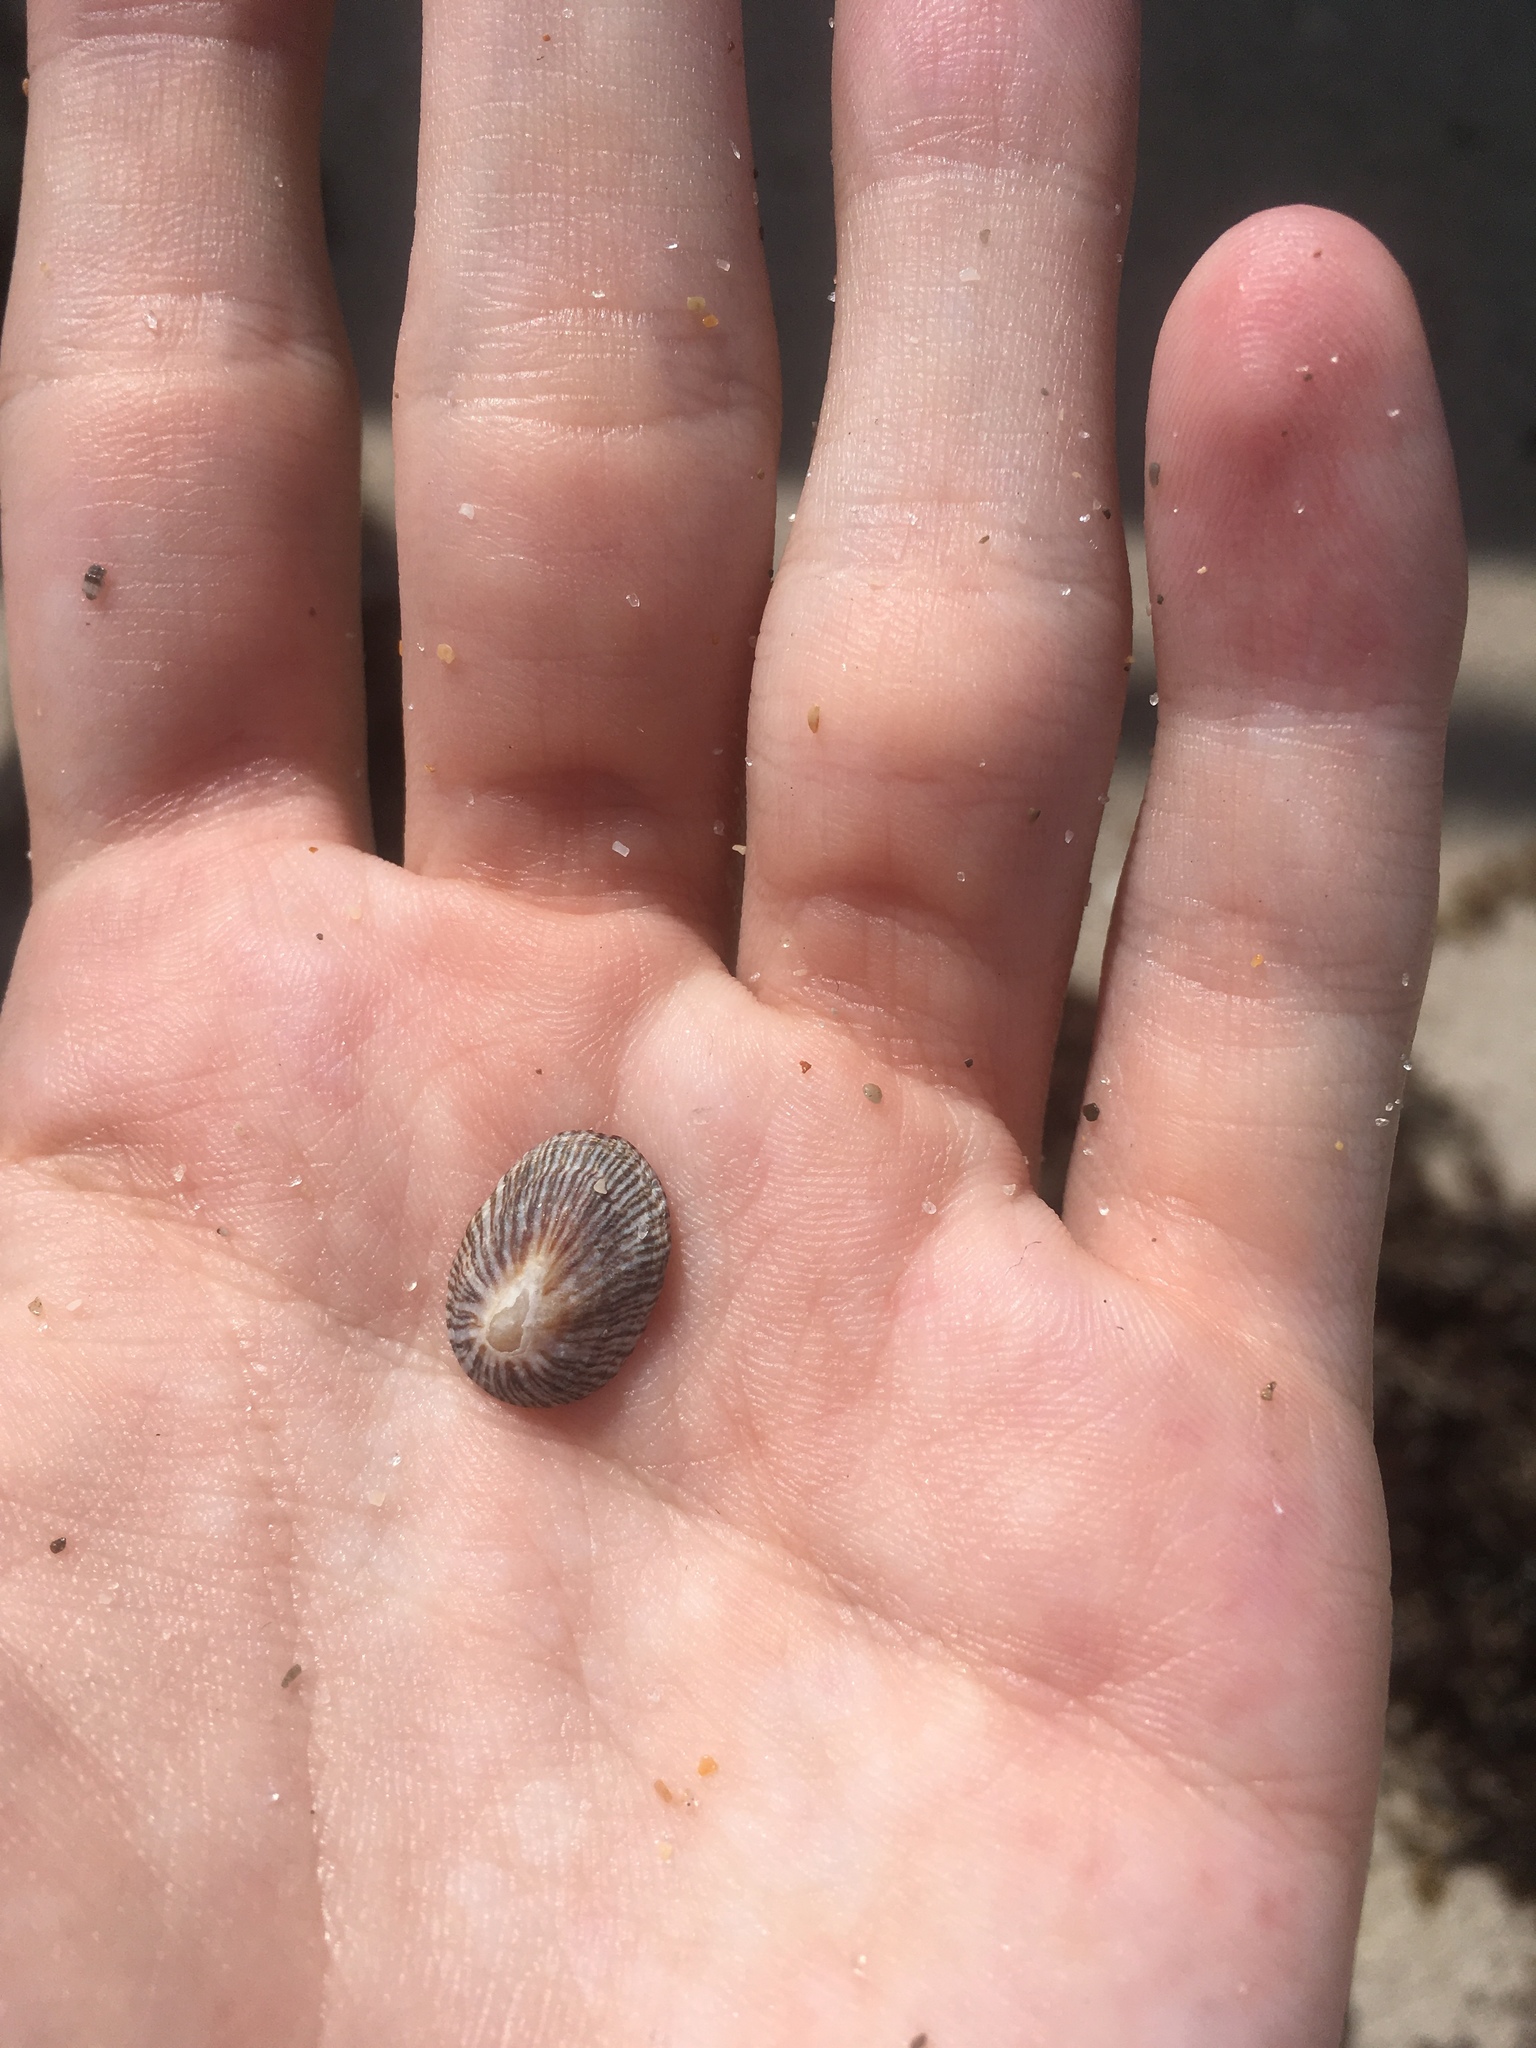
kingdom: Animalia
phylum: Mollusca
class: Gastropoda
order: Siphonariida
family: Siphonariidae
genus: Siphonaria
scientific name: Siphonaria naufragum
